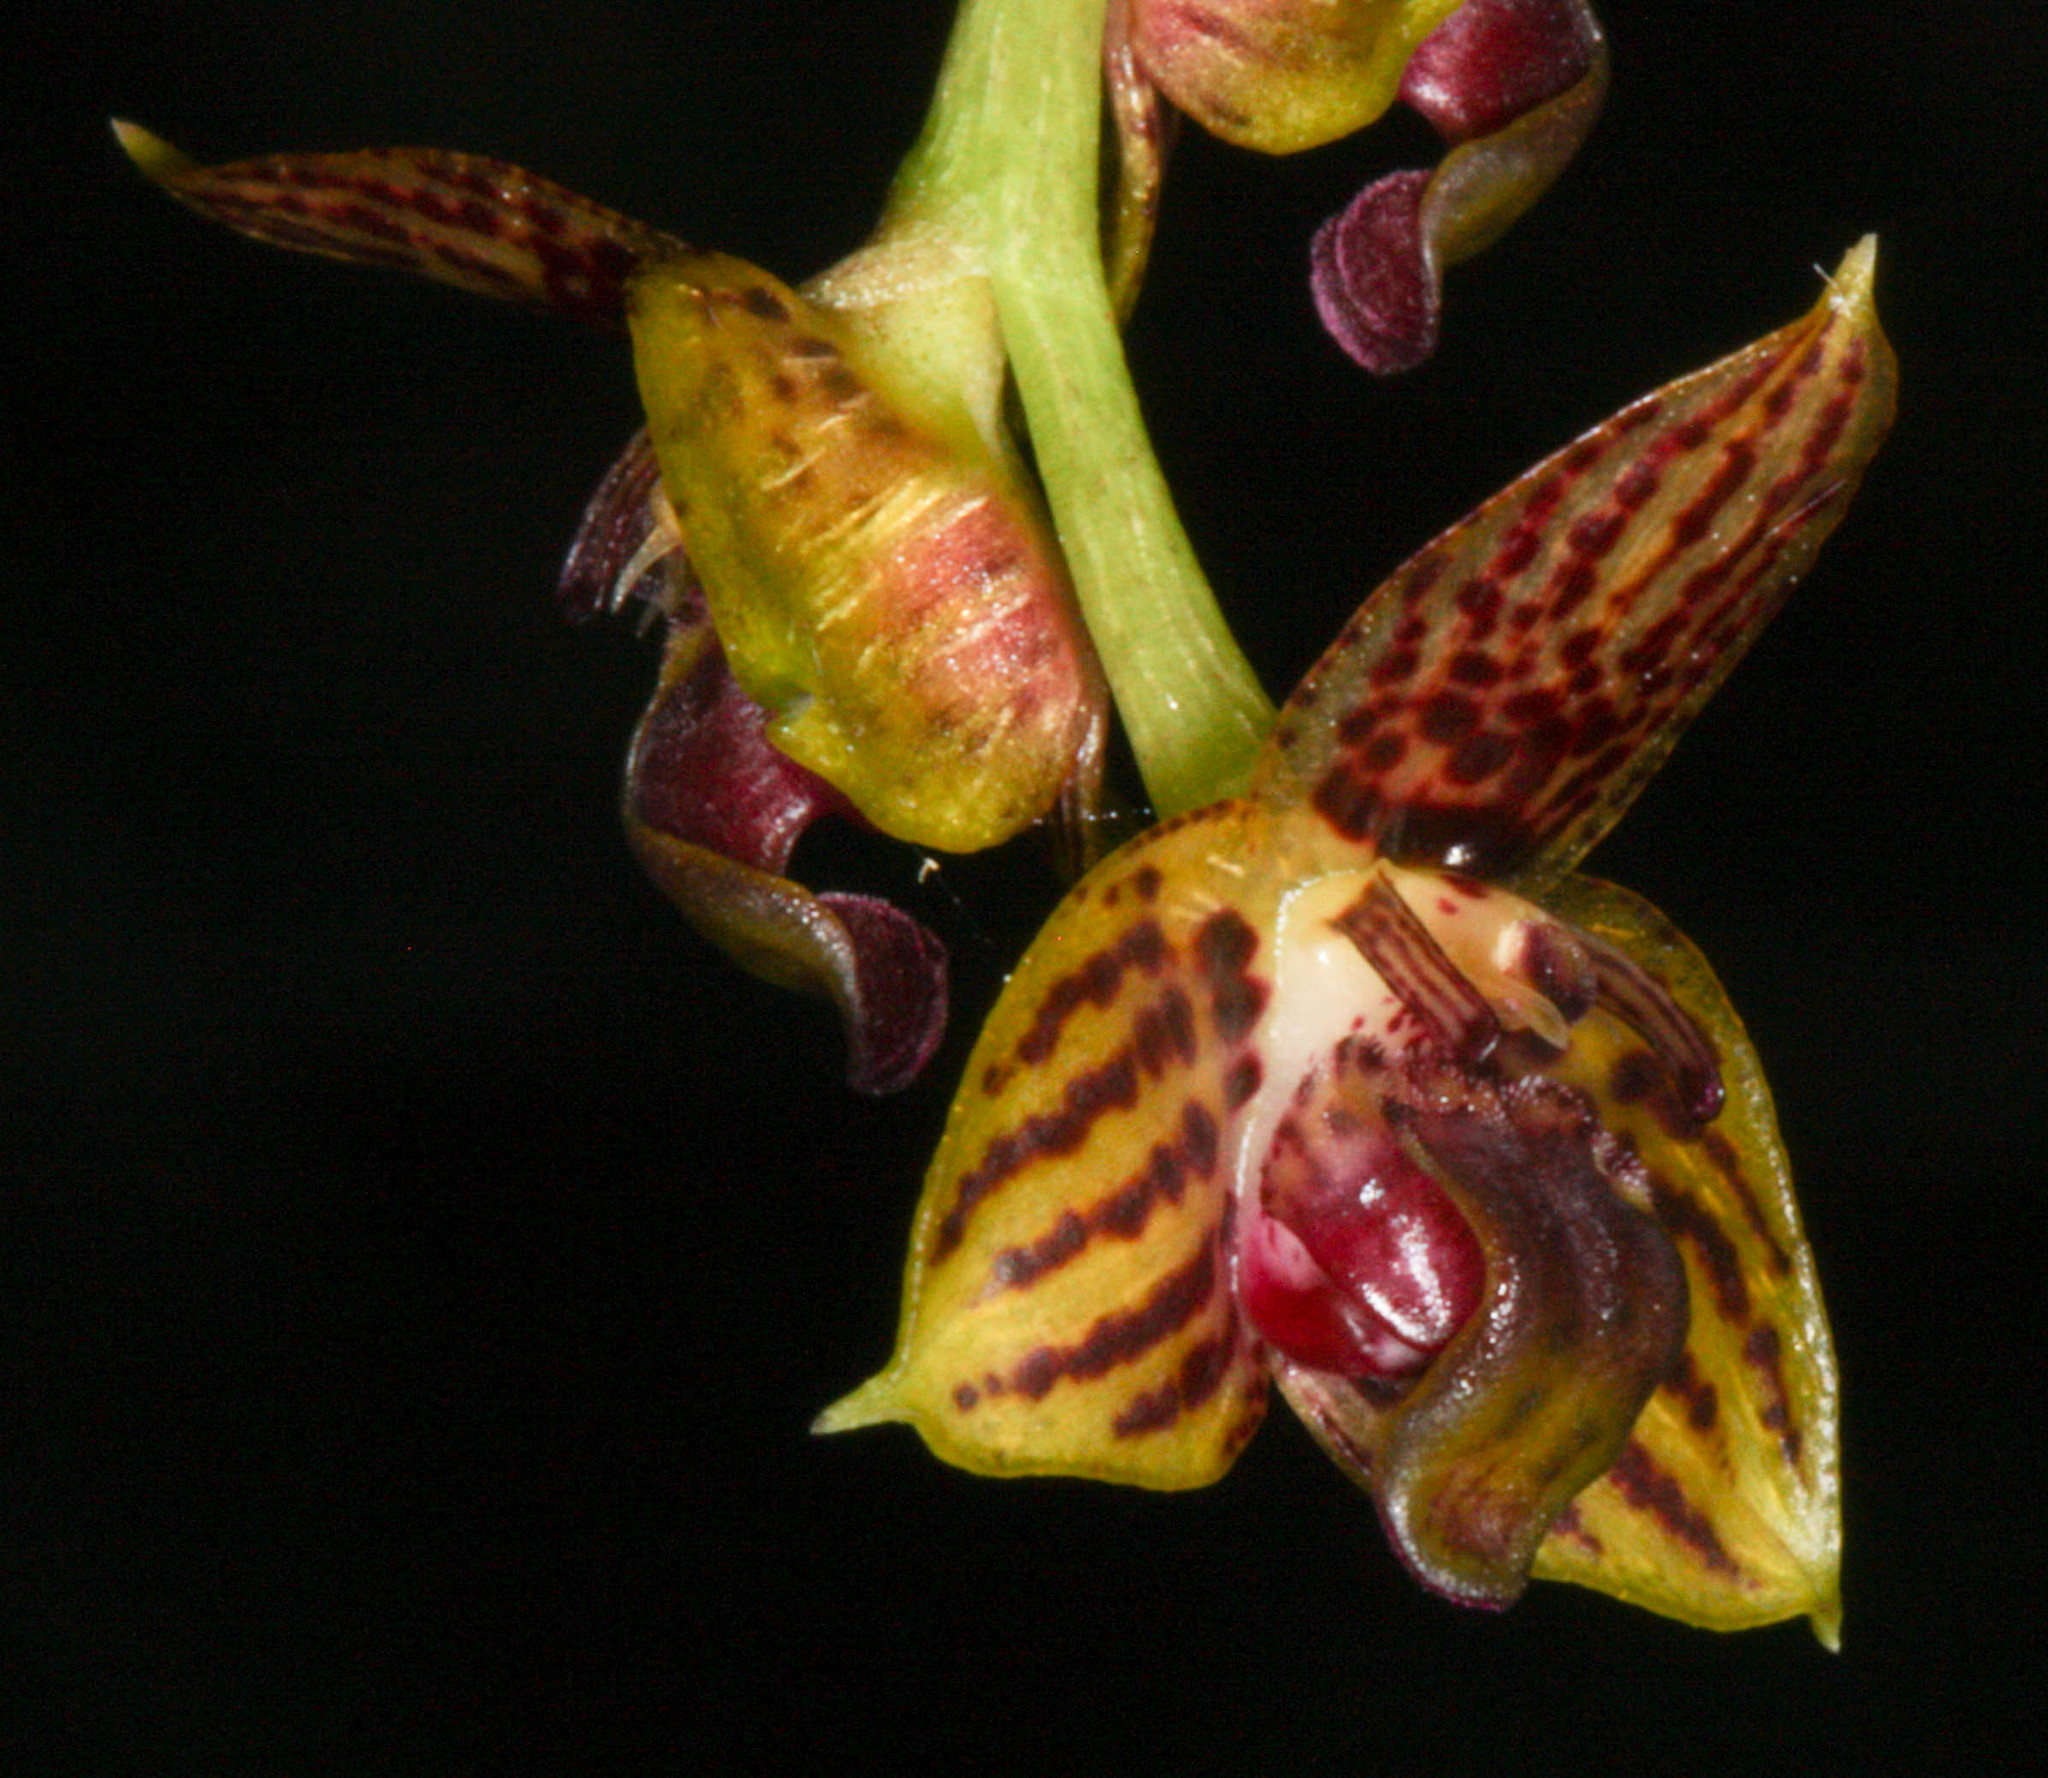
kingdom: Plantae
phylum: Tracheophyta
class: Liliopsida
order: Asparagales
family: Orchidaceae
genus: Bulbophyllum
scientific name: Bulbophyllum francoisii
